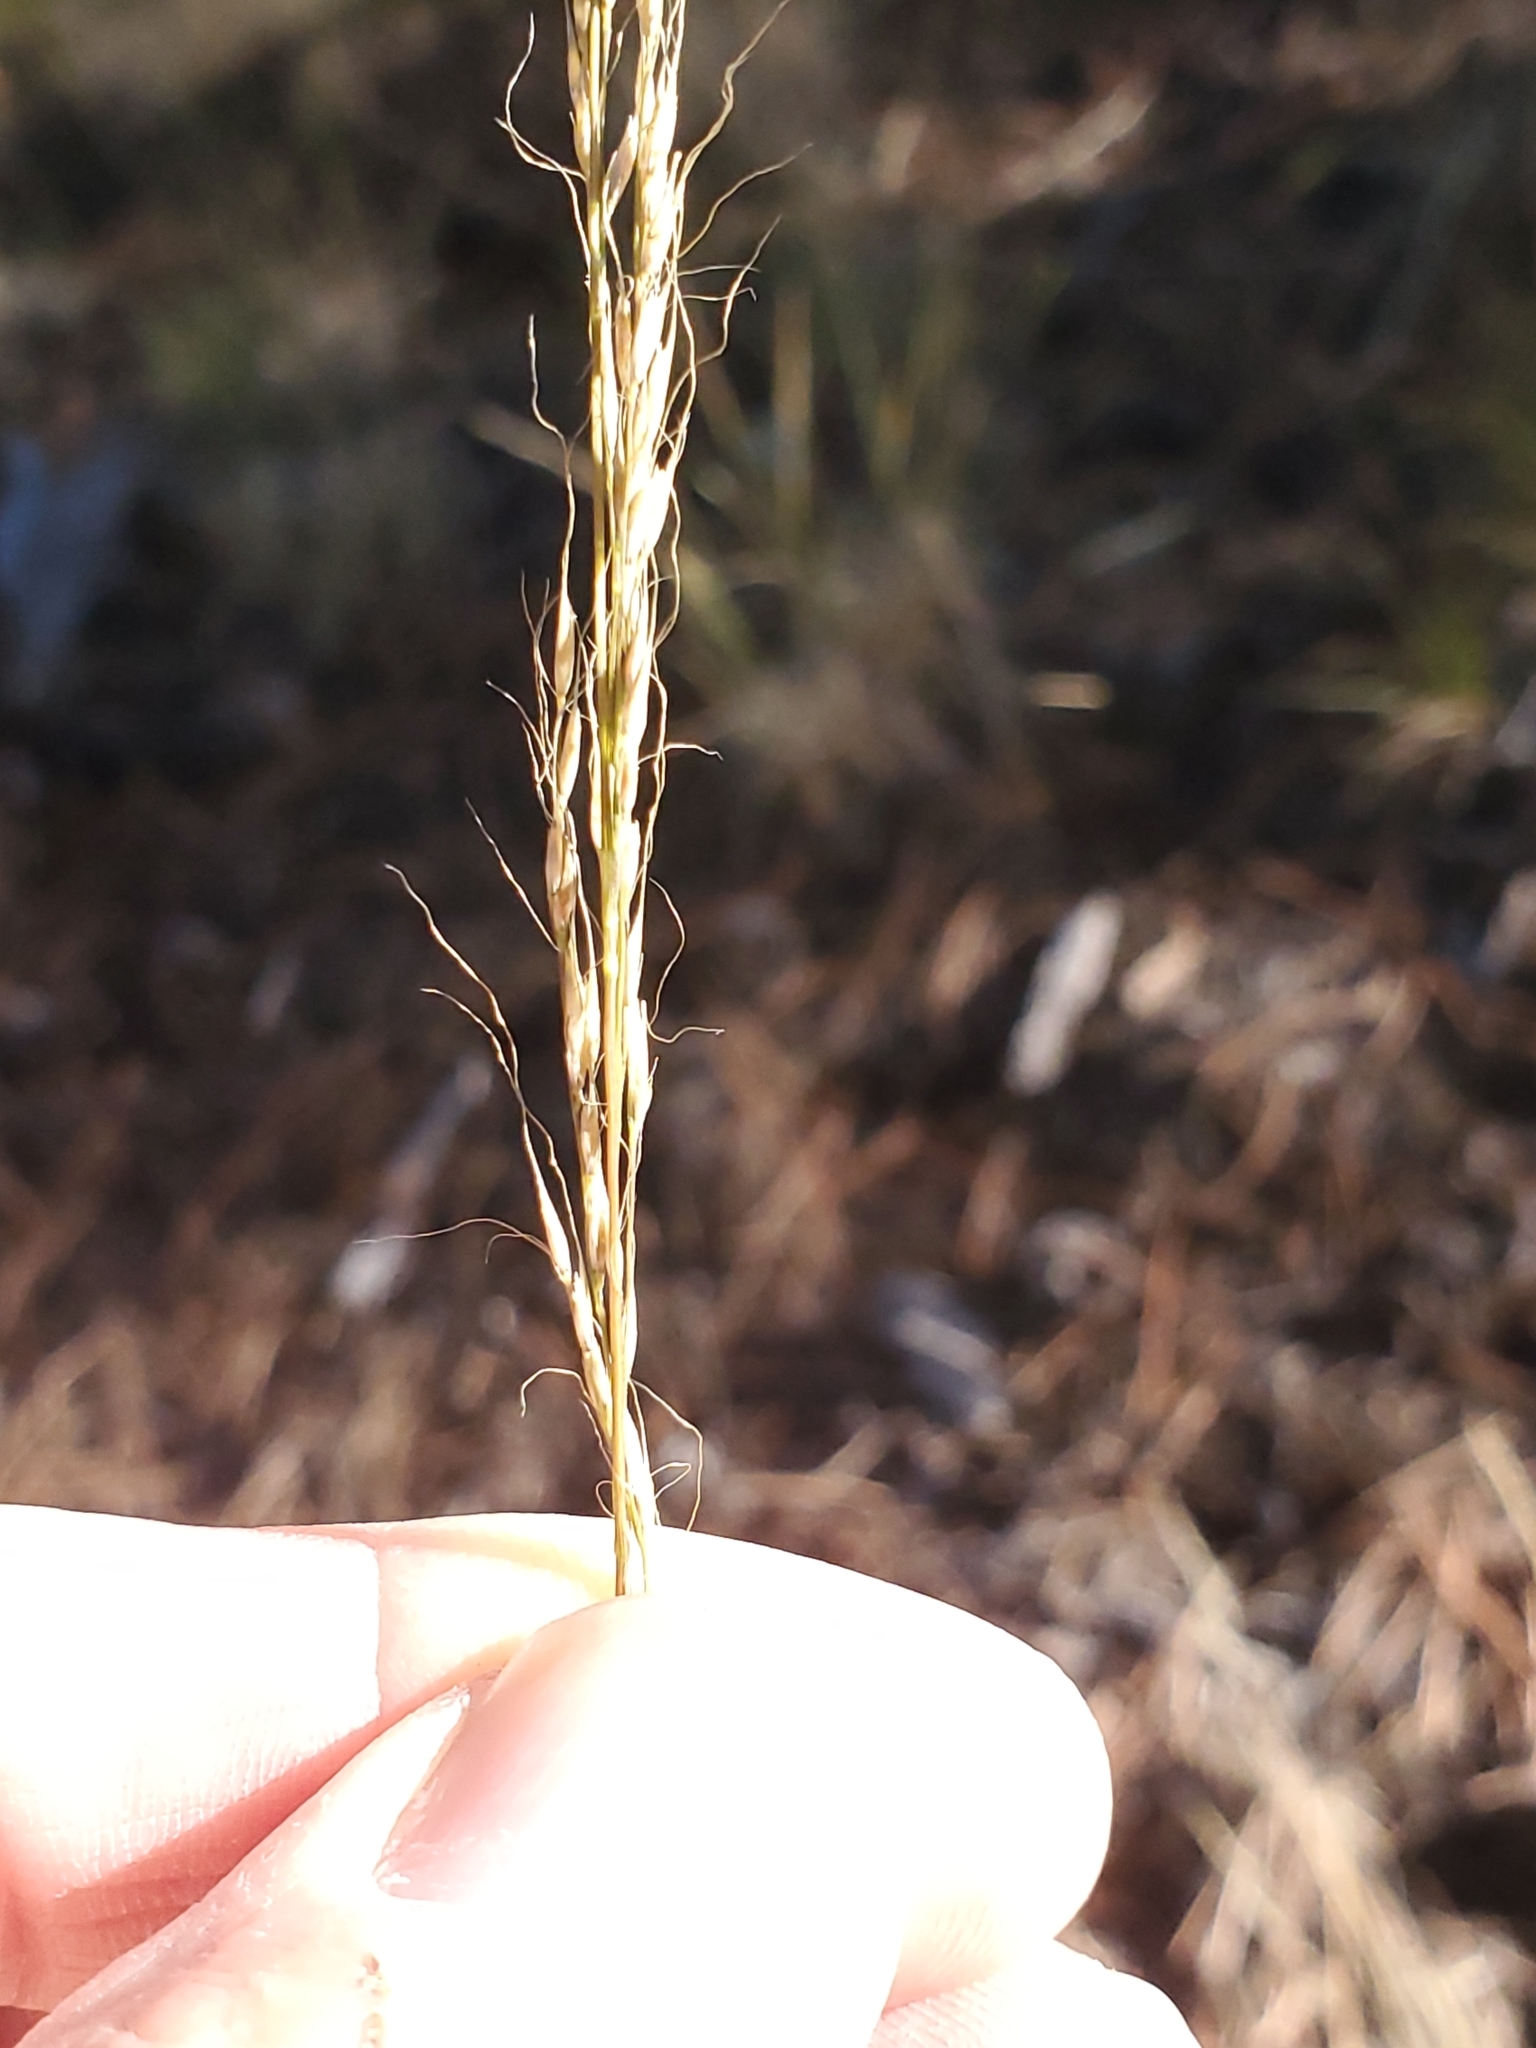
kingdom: Plantae
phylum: Tracheophyta
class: Liliopsida
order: Poales
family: Poaceae
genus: Muhlenbergia
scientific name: Muhlenbergia montana
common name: Mountain muhly
